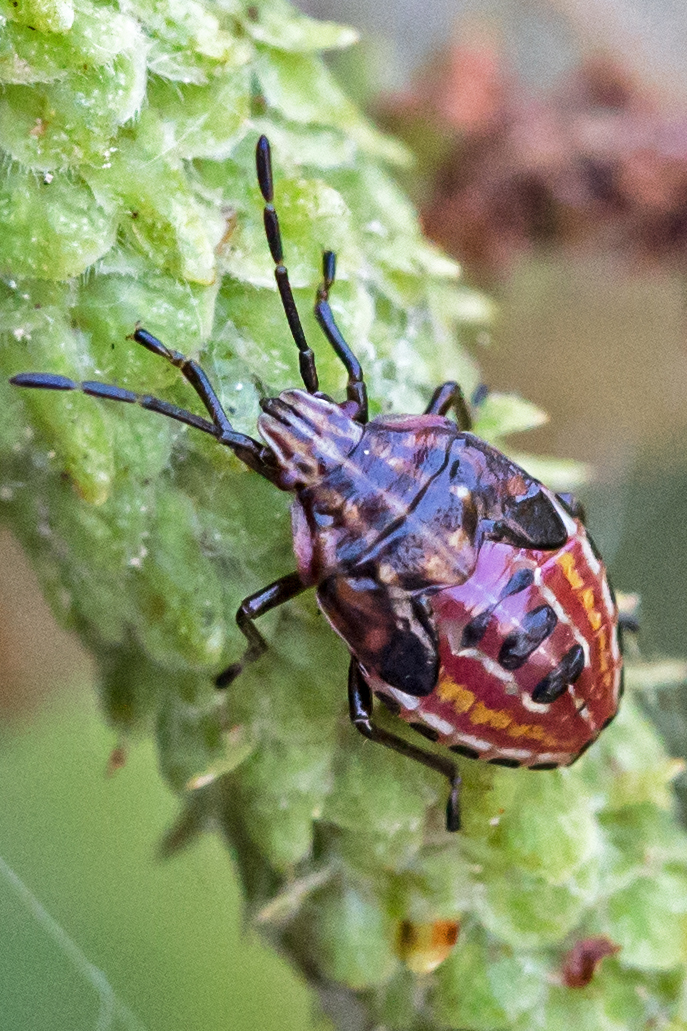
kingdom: Animalia
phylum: Arthropoda
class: Insecta
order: Hemiptera
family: Acanthosomatidae
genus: Elasmucha
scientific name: Elasmucha lateralis
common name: Shield bug
